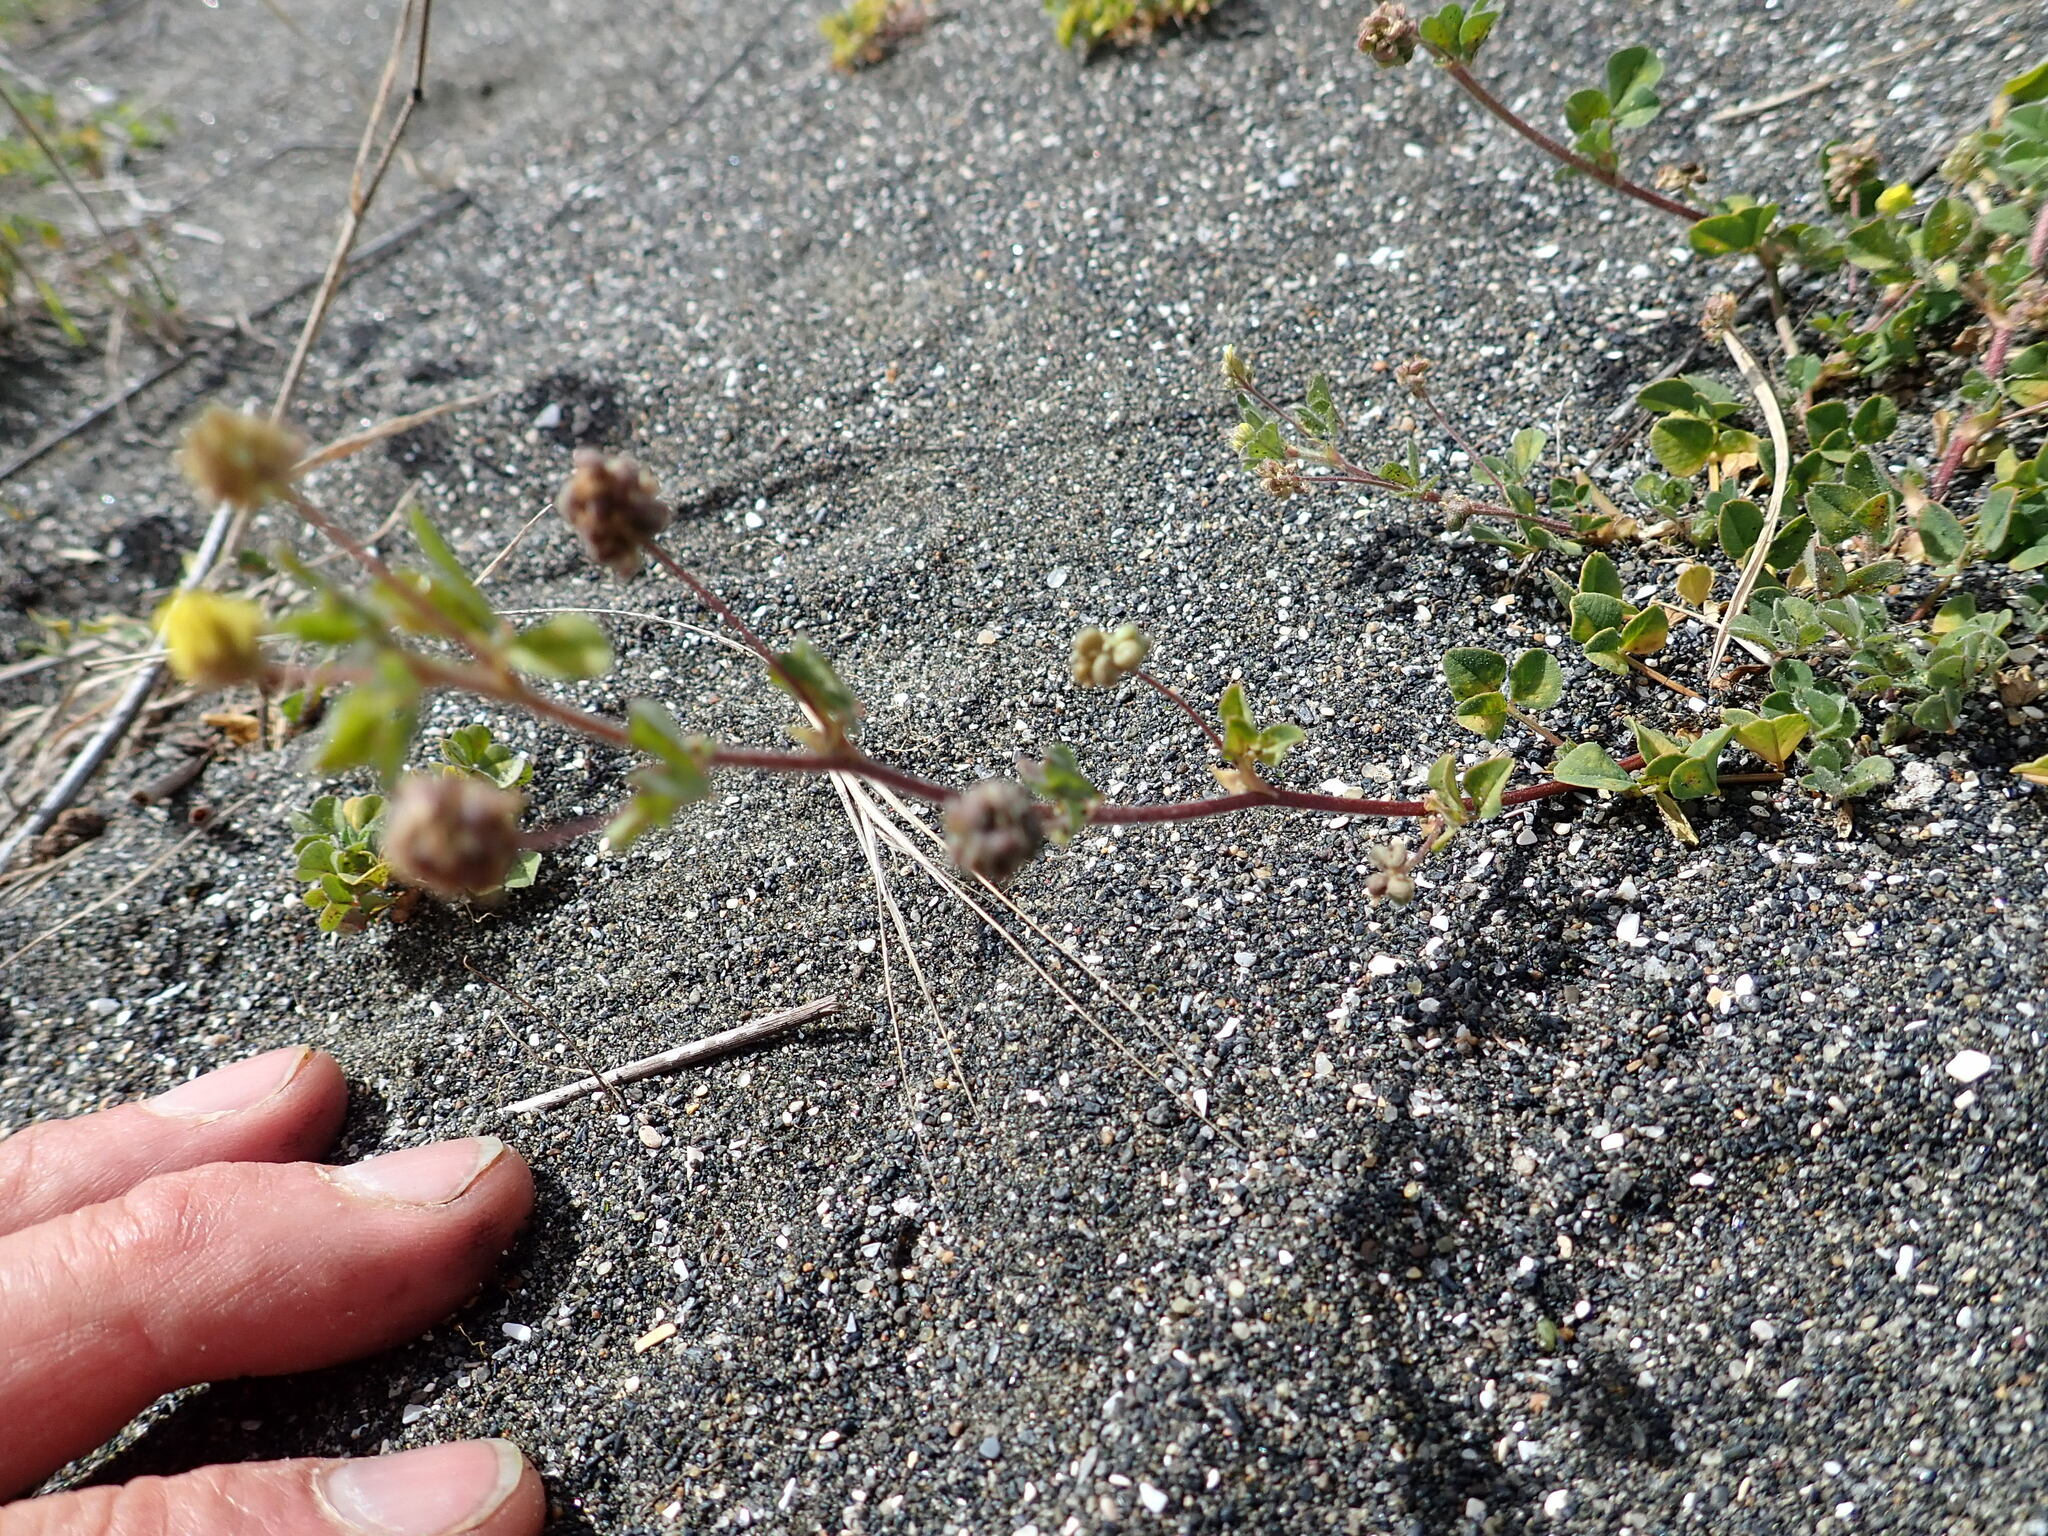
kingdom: Plantae
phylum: Tracheophyta
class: Magnoliopsida
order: Fabales
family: Fabaceae
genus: Medicago
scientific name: Medicago lupulina
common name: Black medick
